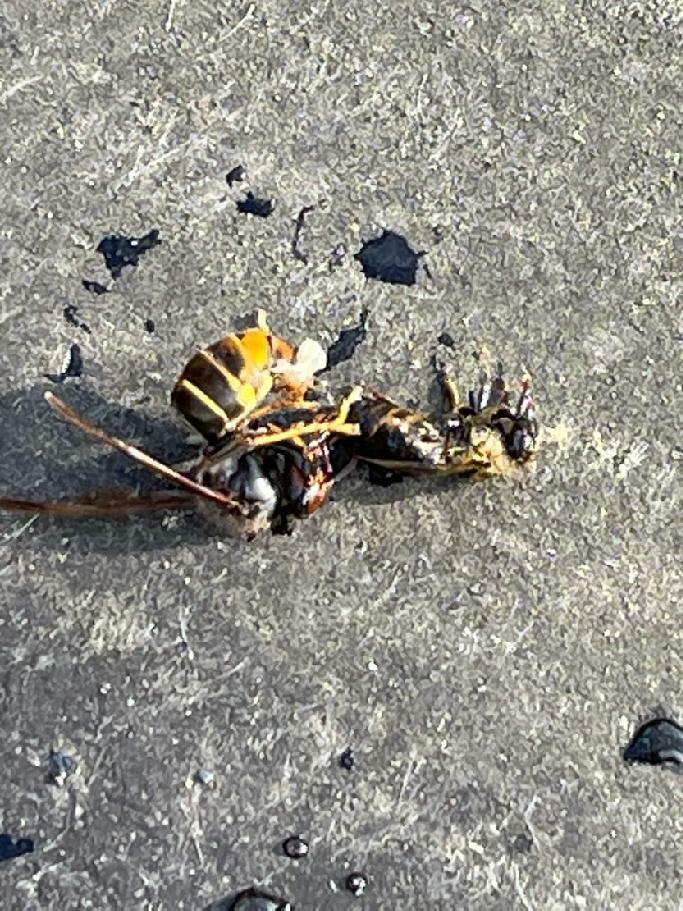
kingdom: Animalia
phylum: Arthropoda
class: Insecta
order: Hymenoptera
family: Vespidae
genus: Vespa
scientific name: Vespa velutina
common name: Asian hornet
